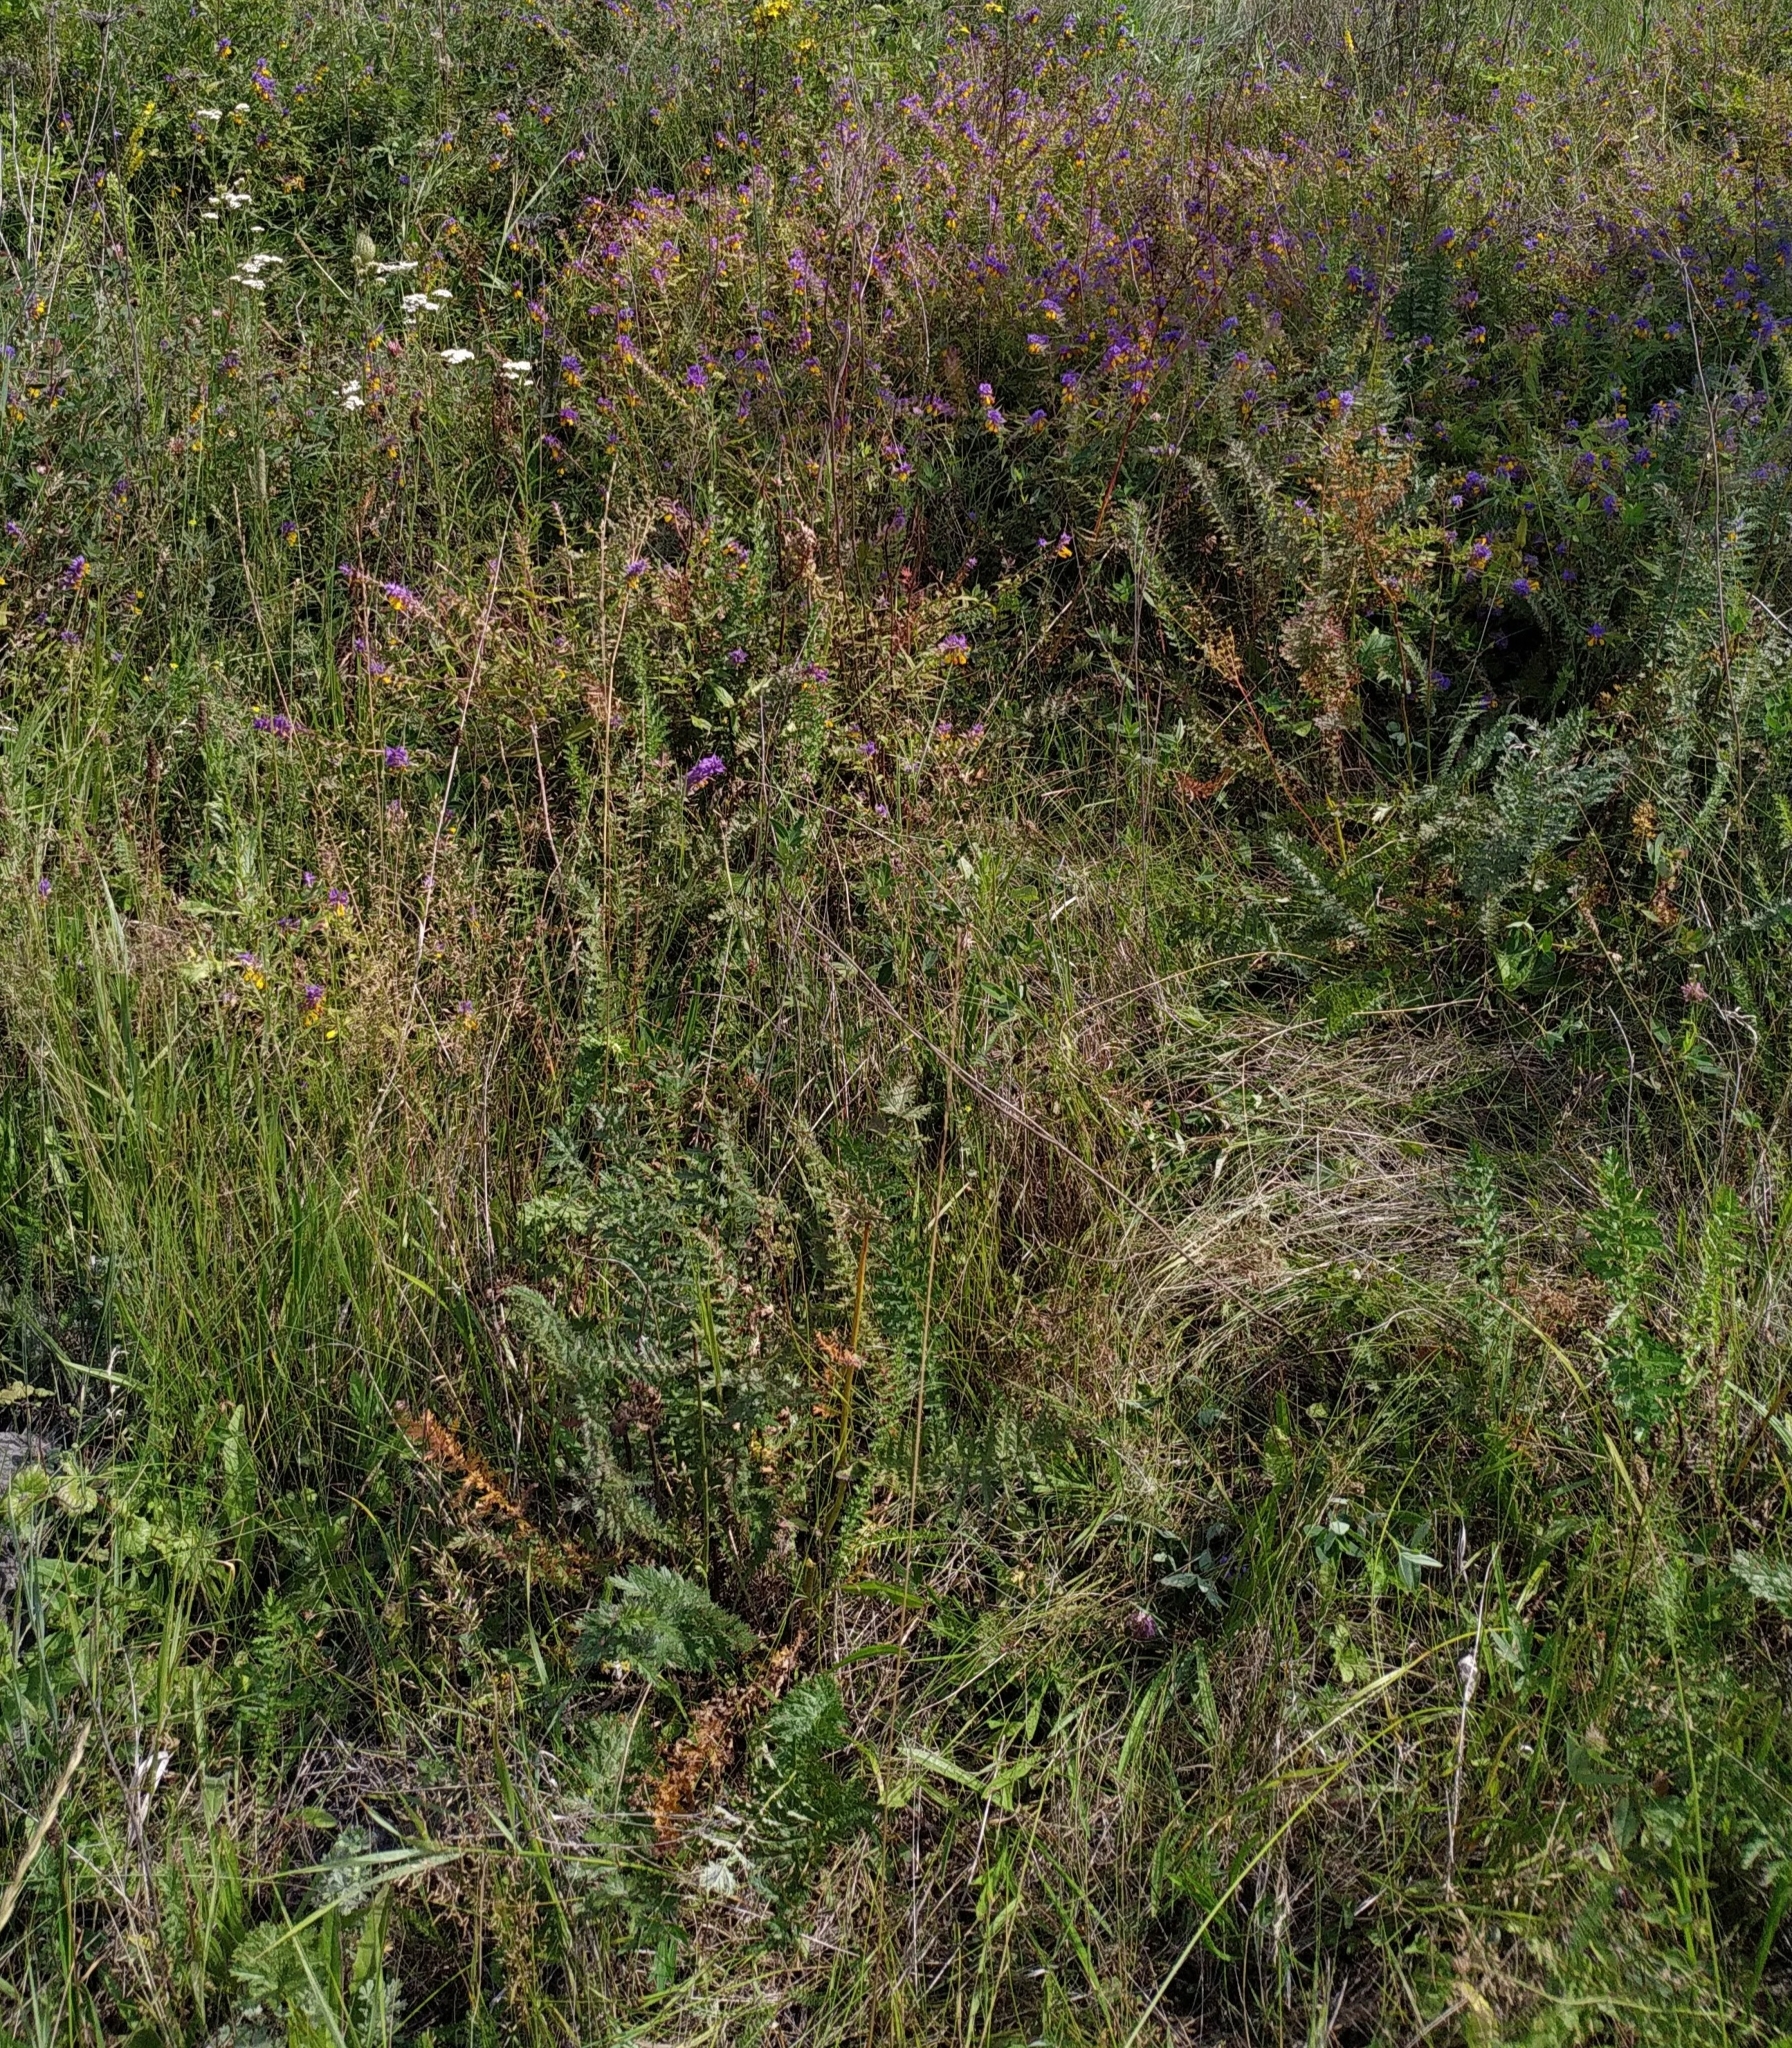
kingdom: Plantae
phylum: Tracheophyta
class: Magnoliopsida
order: Lamiales
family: Orobanchaceae
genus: Melampyrum
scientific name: Melampyrum nemorosum
